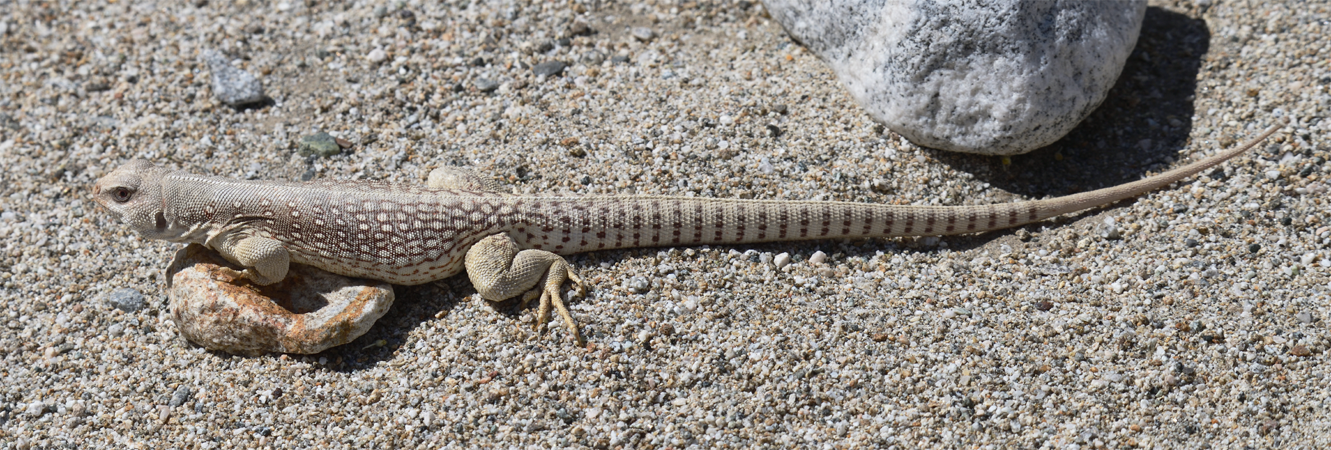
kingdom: Animalia
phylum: Chordata
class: Squamata
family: Iguanidae
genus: Dipsosaurus
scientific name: Dipsosaurus dorsalis
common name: Desert iguana
